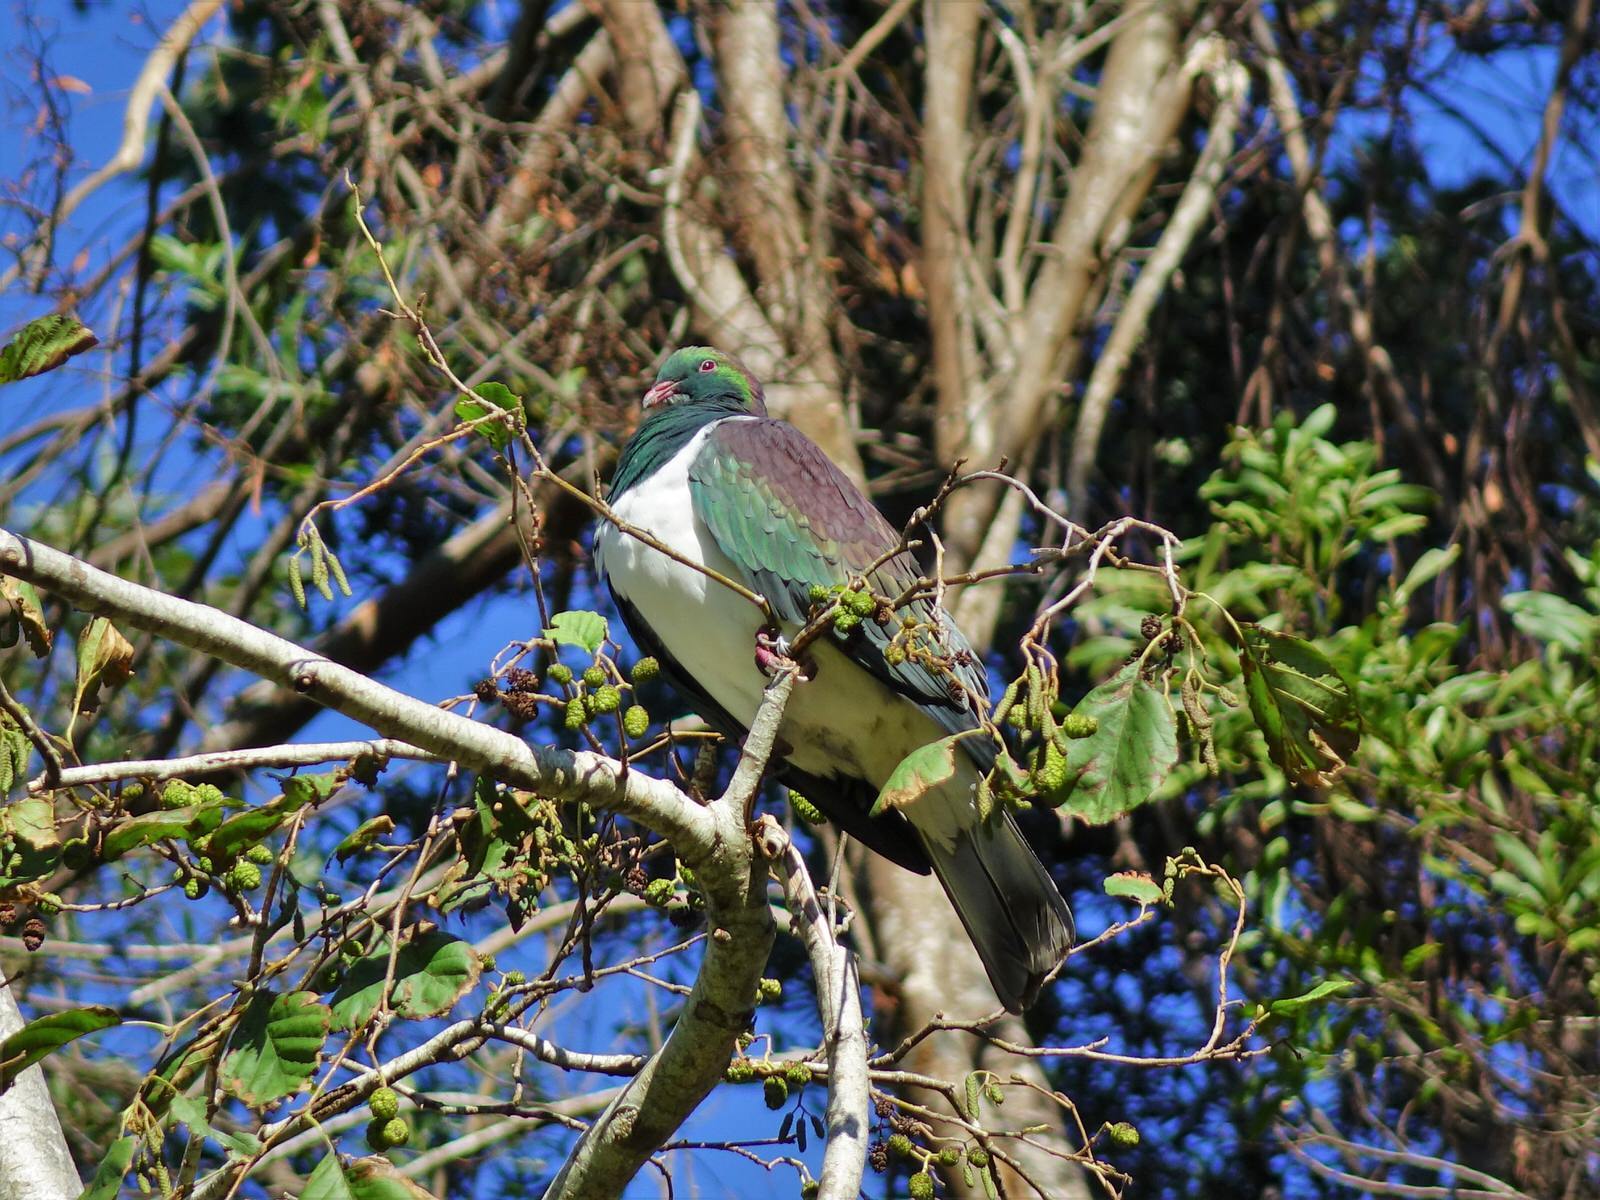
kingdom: Animalia
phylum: Chordata
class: Aves
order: Columbiformes
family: Columbidae
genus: Hemiphaga
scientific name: Hemiphaga novaeseelandiae
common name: New zealand pigeon
